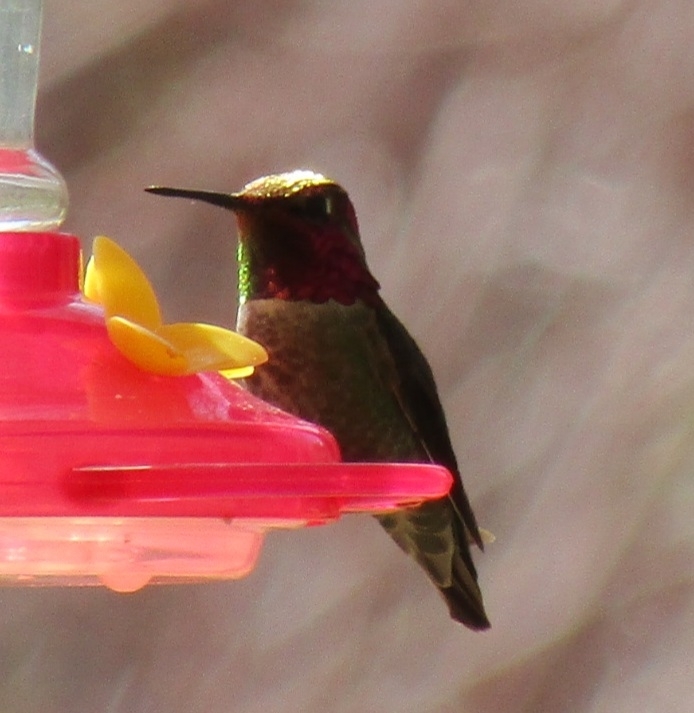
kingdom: Animalia
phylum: Chordata
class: Aves
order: Apodiformes
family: Trochilidae
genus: Calypte
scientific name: Calypte anna
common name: Anna's hummingbird
